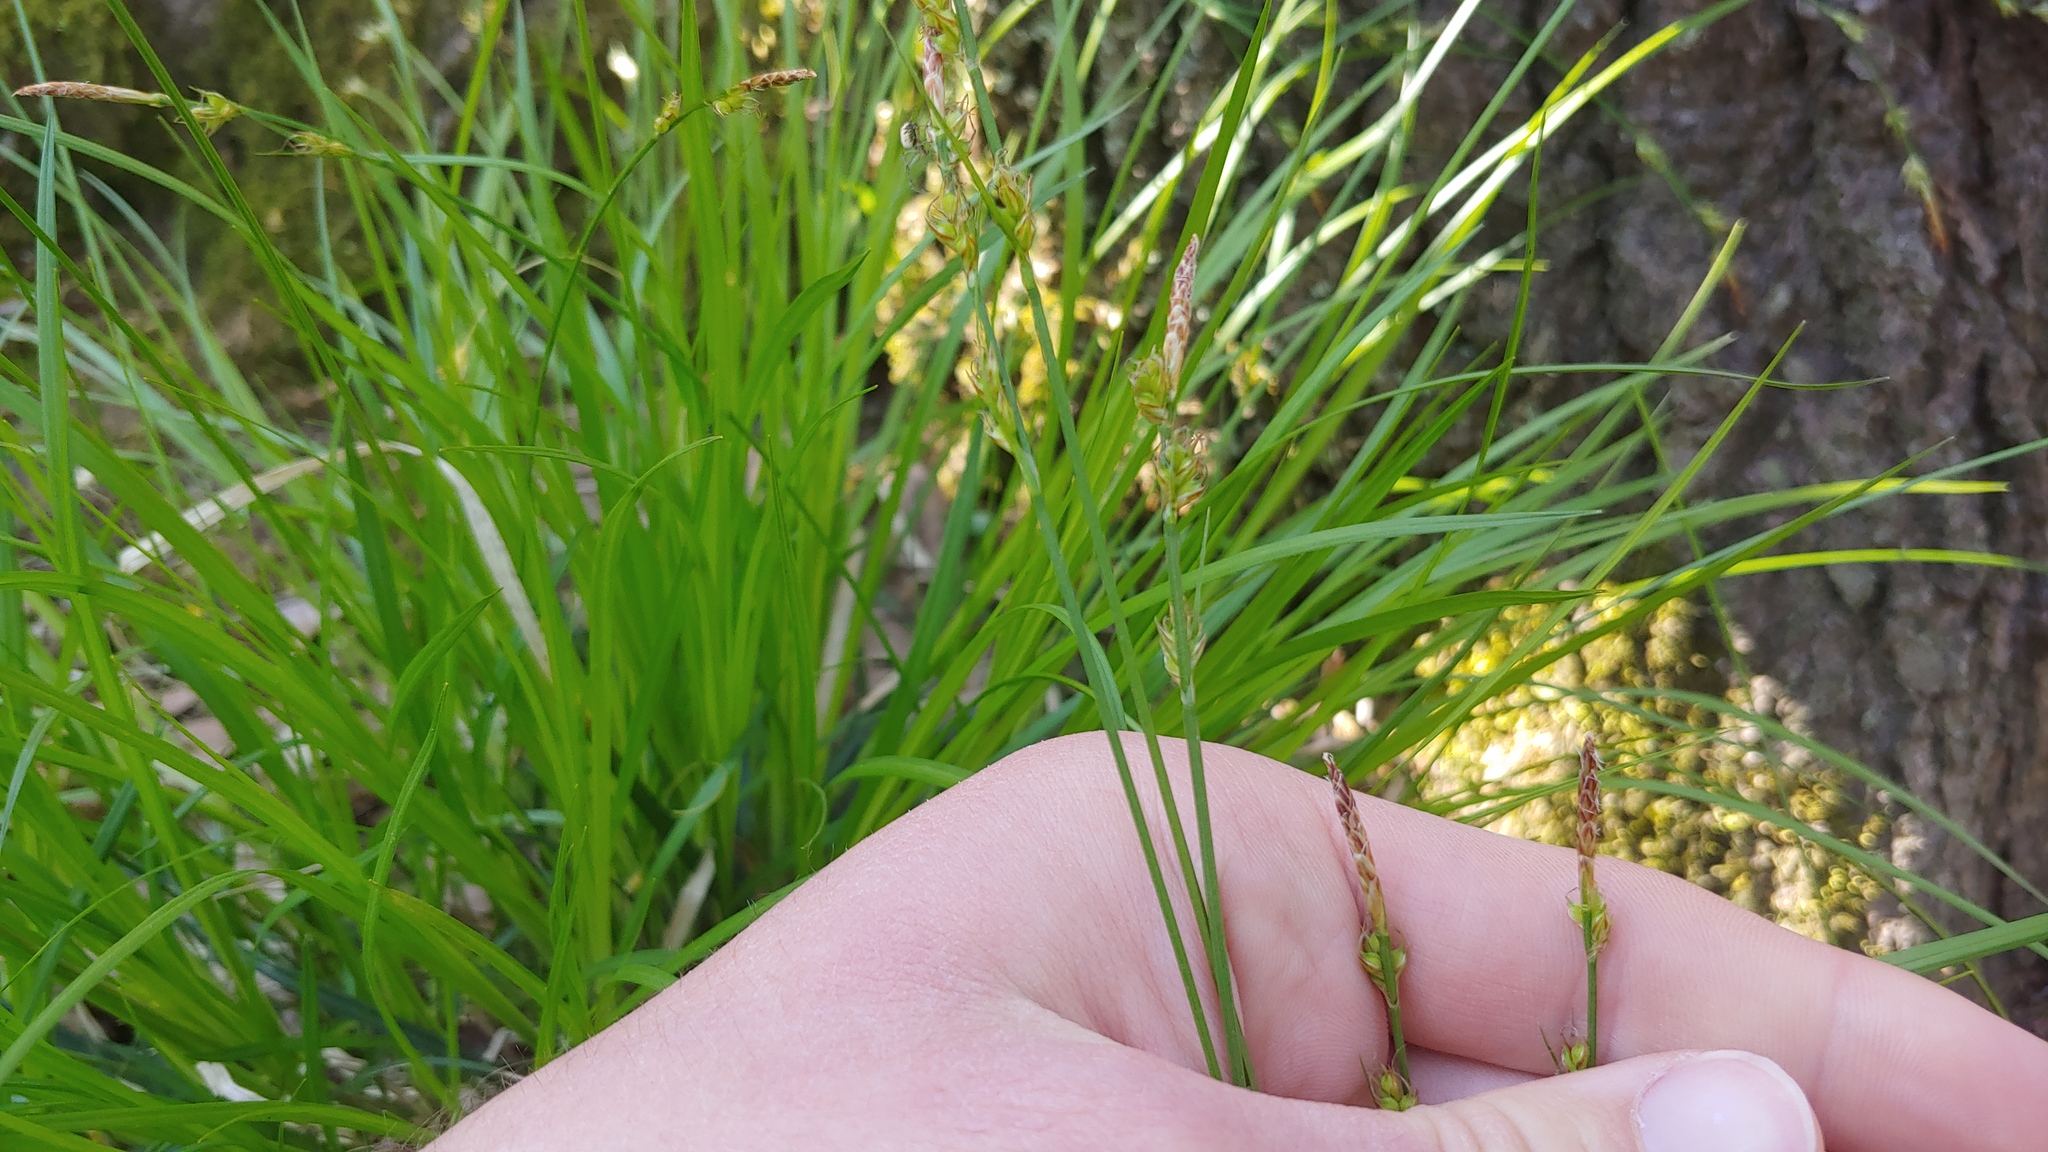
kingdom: Plantae
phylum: Tracheophyta
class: Liliopsida
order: Poales
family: Cyperaceae
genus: Carex
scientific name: Carex communis
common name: Colonial oak sedge
